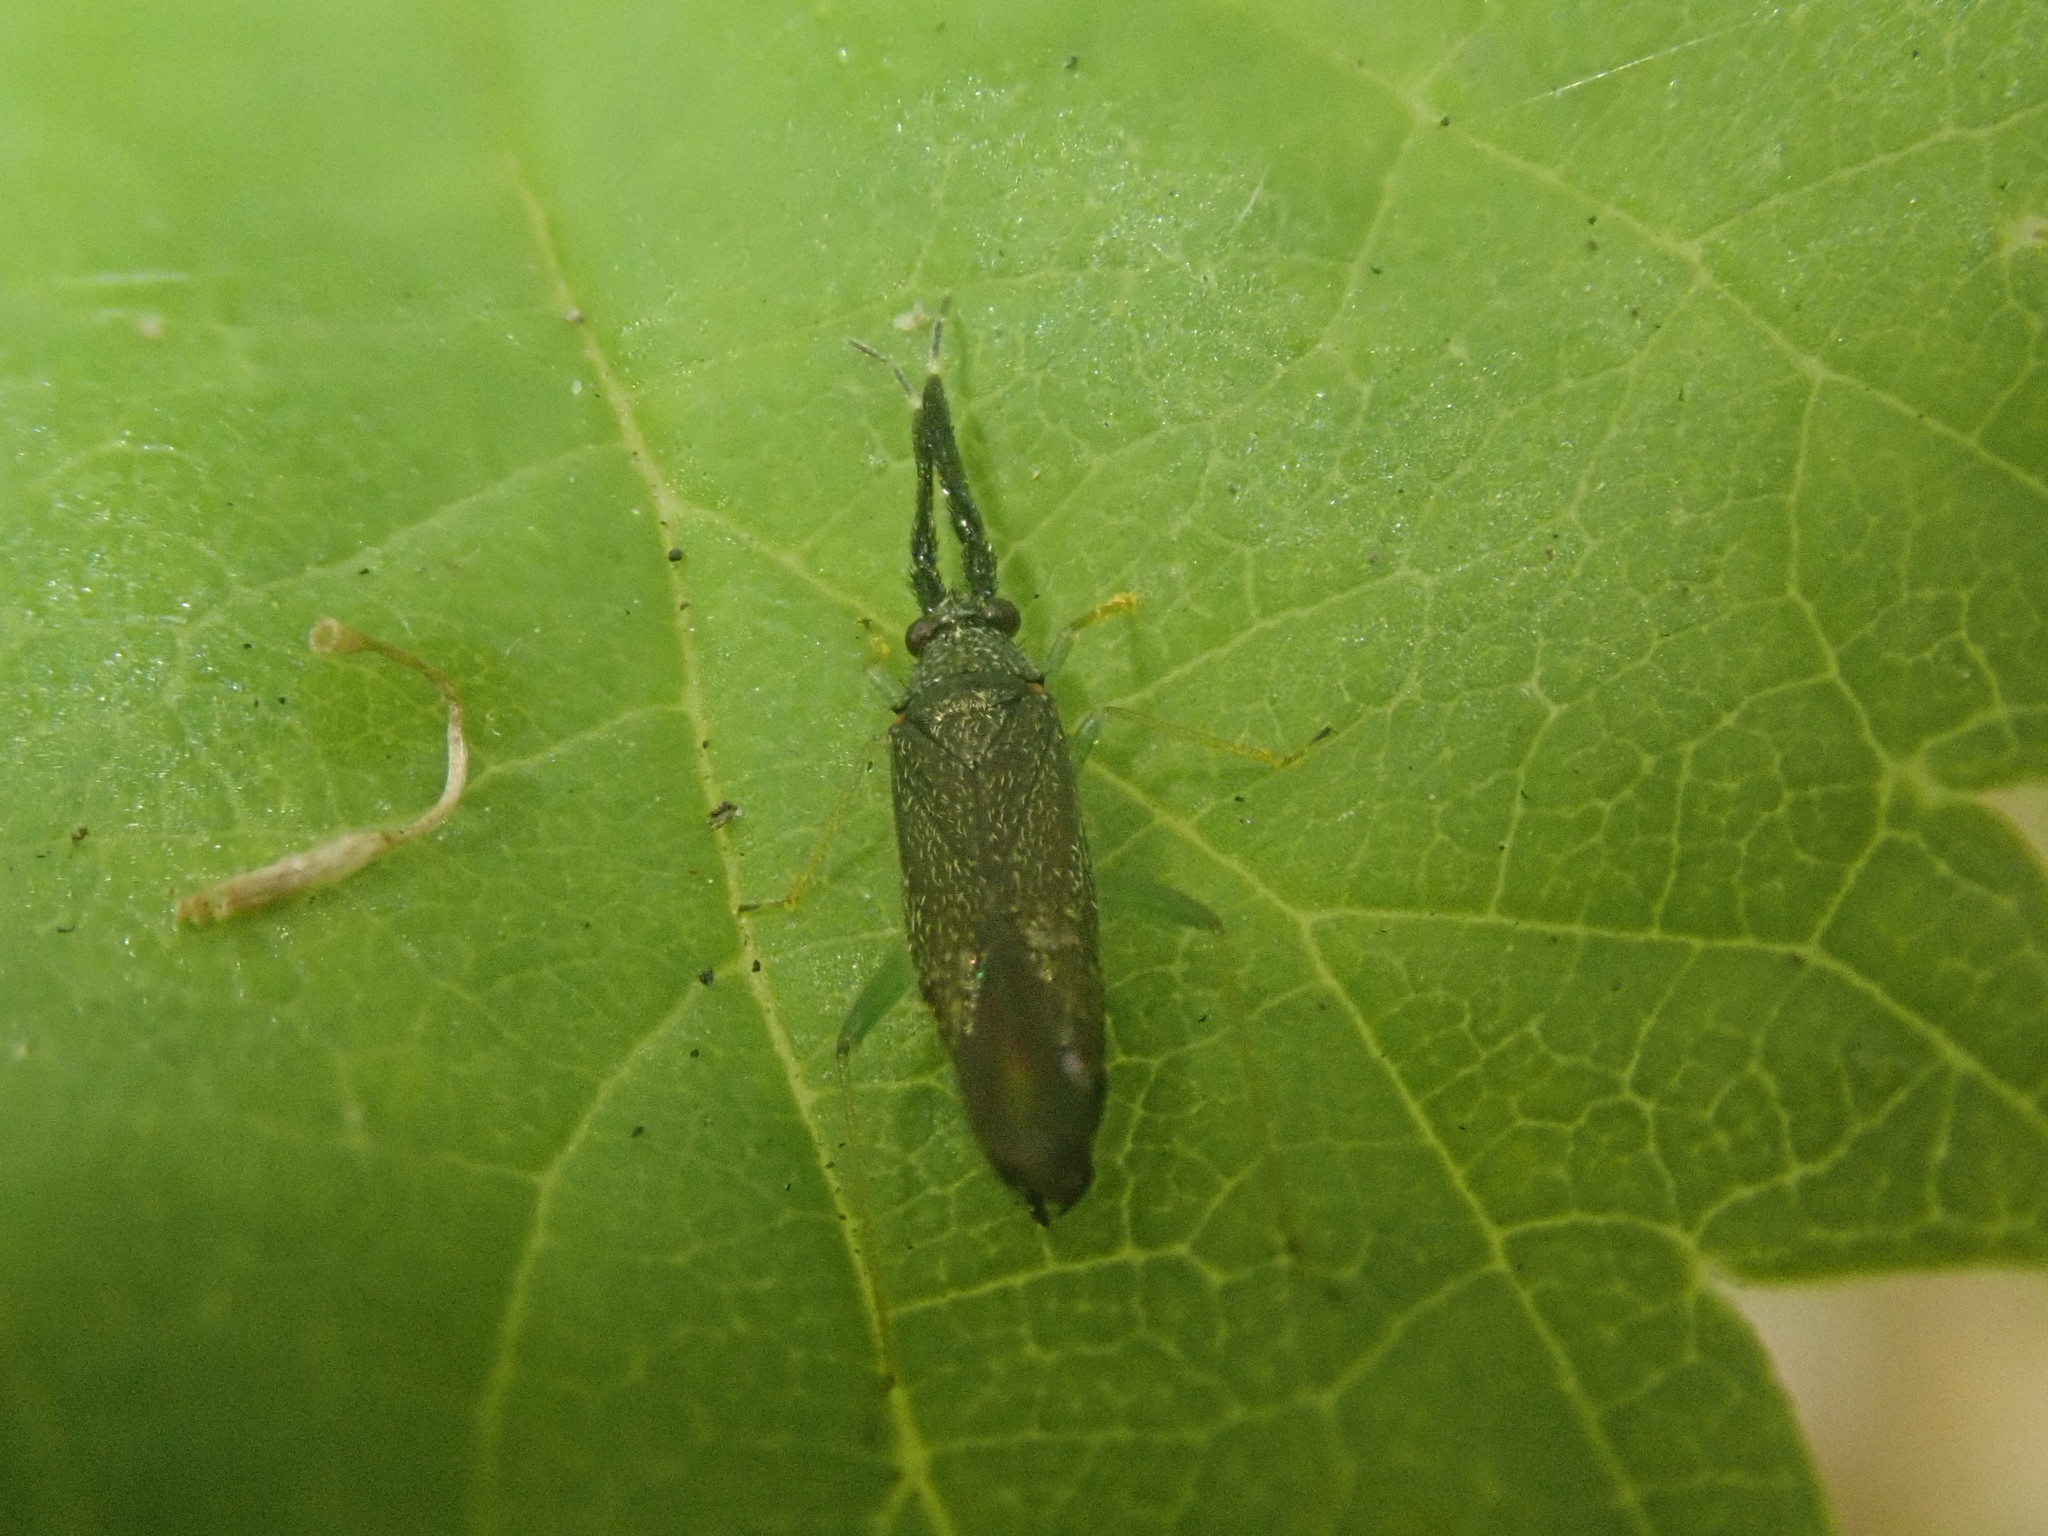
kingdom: Animalia
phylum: Arthropoda
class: Insecta
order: Hemiptera
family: Miridae
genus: Heterotoma
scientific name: Heterotoma planicornis
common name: Plant bug
